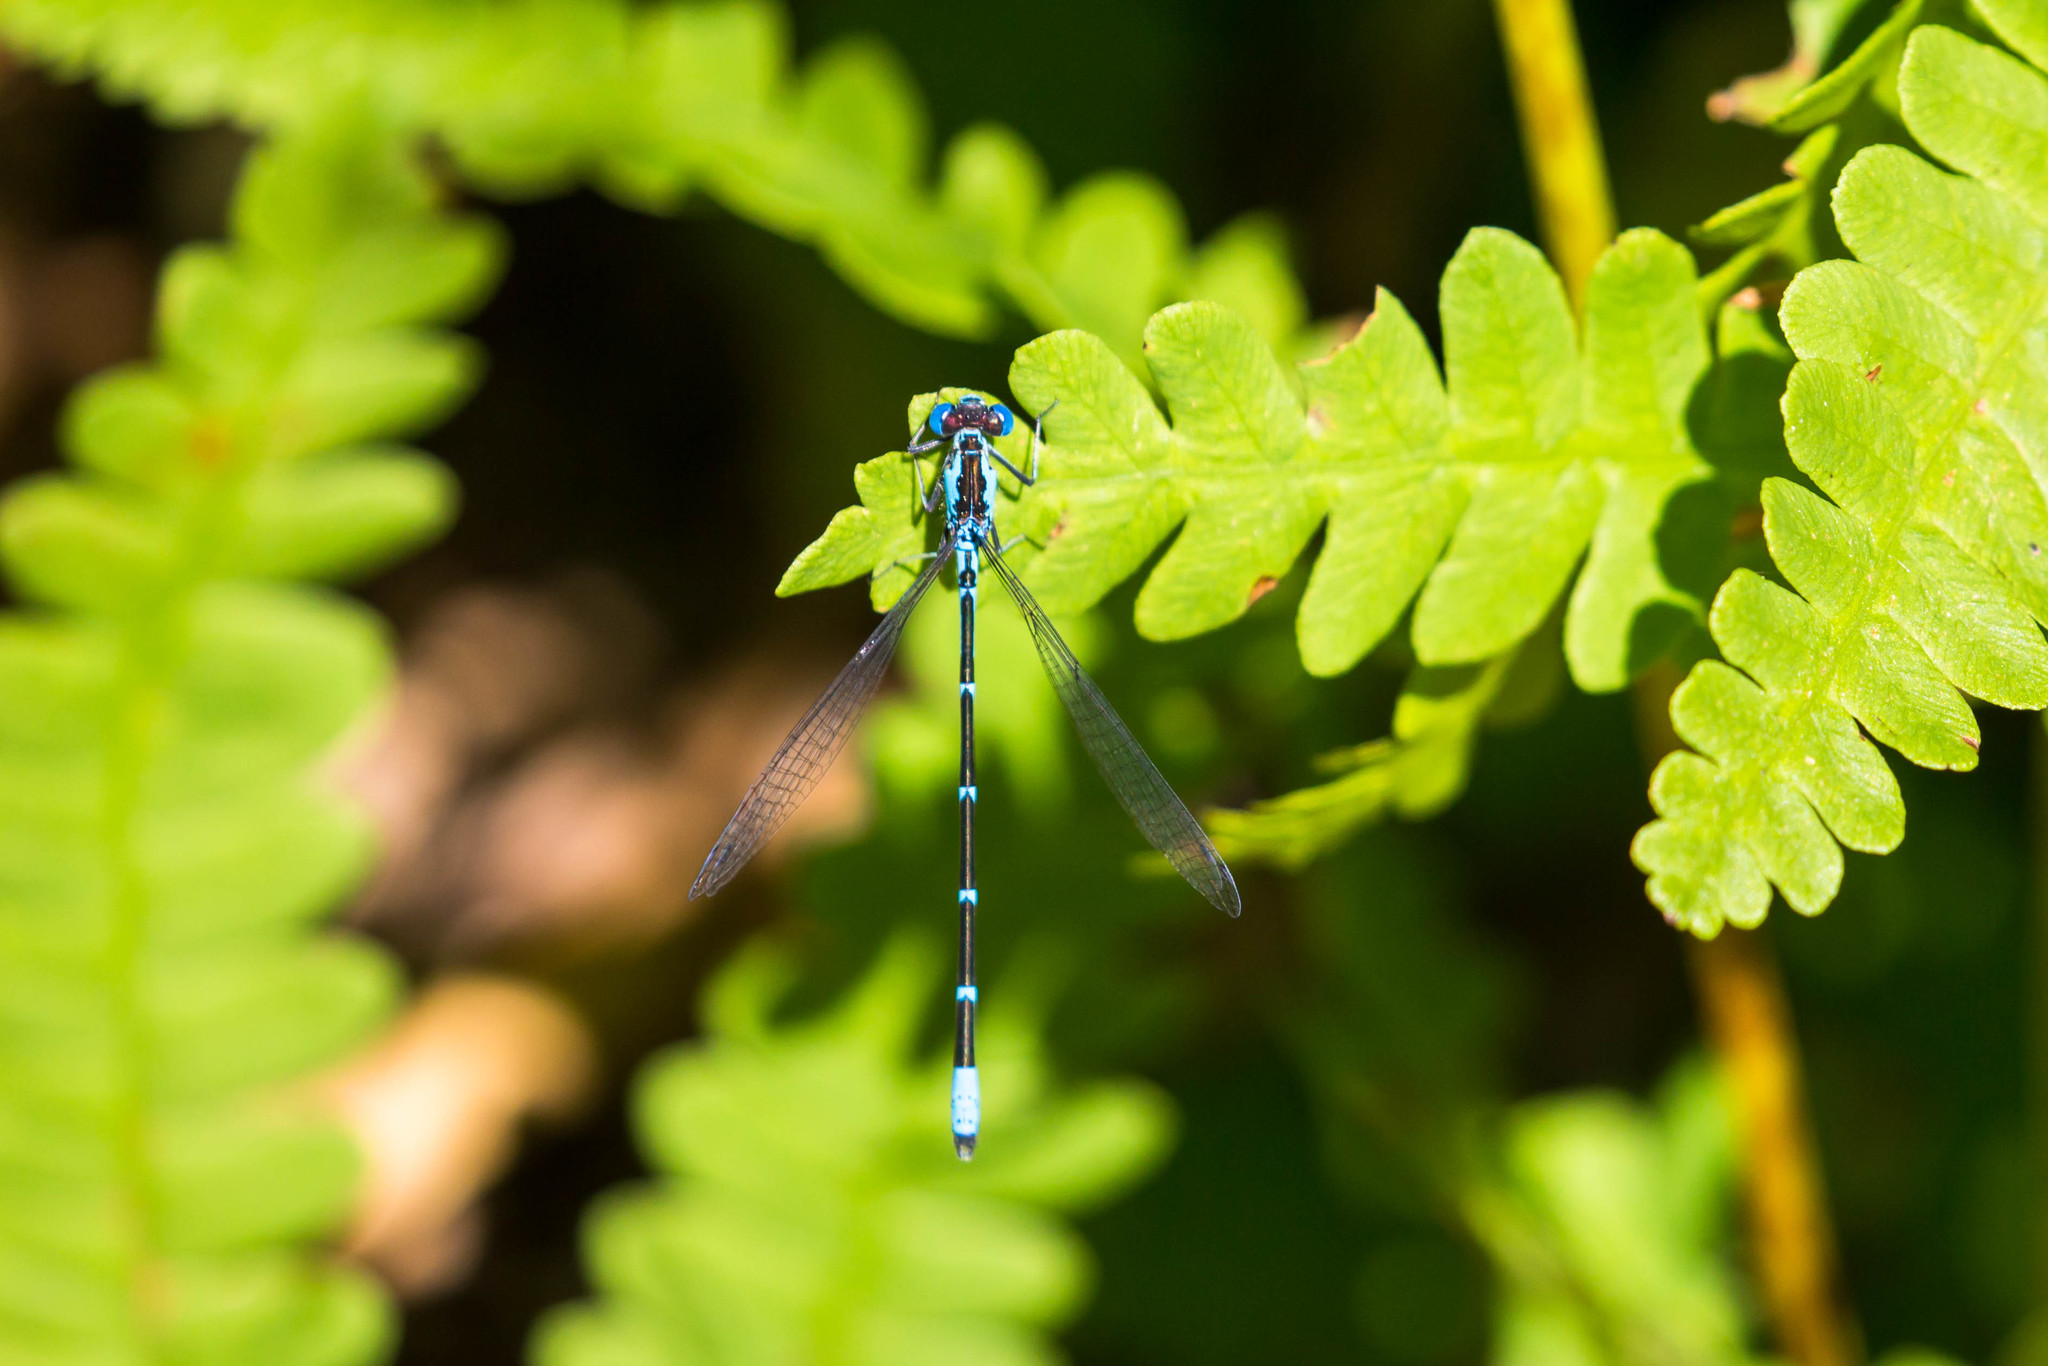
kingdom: Animalia
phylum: Arthropoda
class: Insecta
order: Odonata
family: Coenagrionidae
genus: Chromagrion
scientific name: Chromagrion conditum
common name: Aurora damsel
